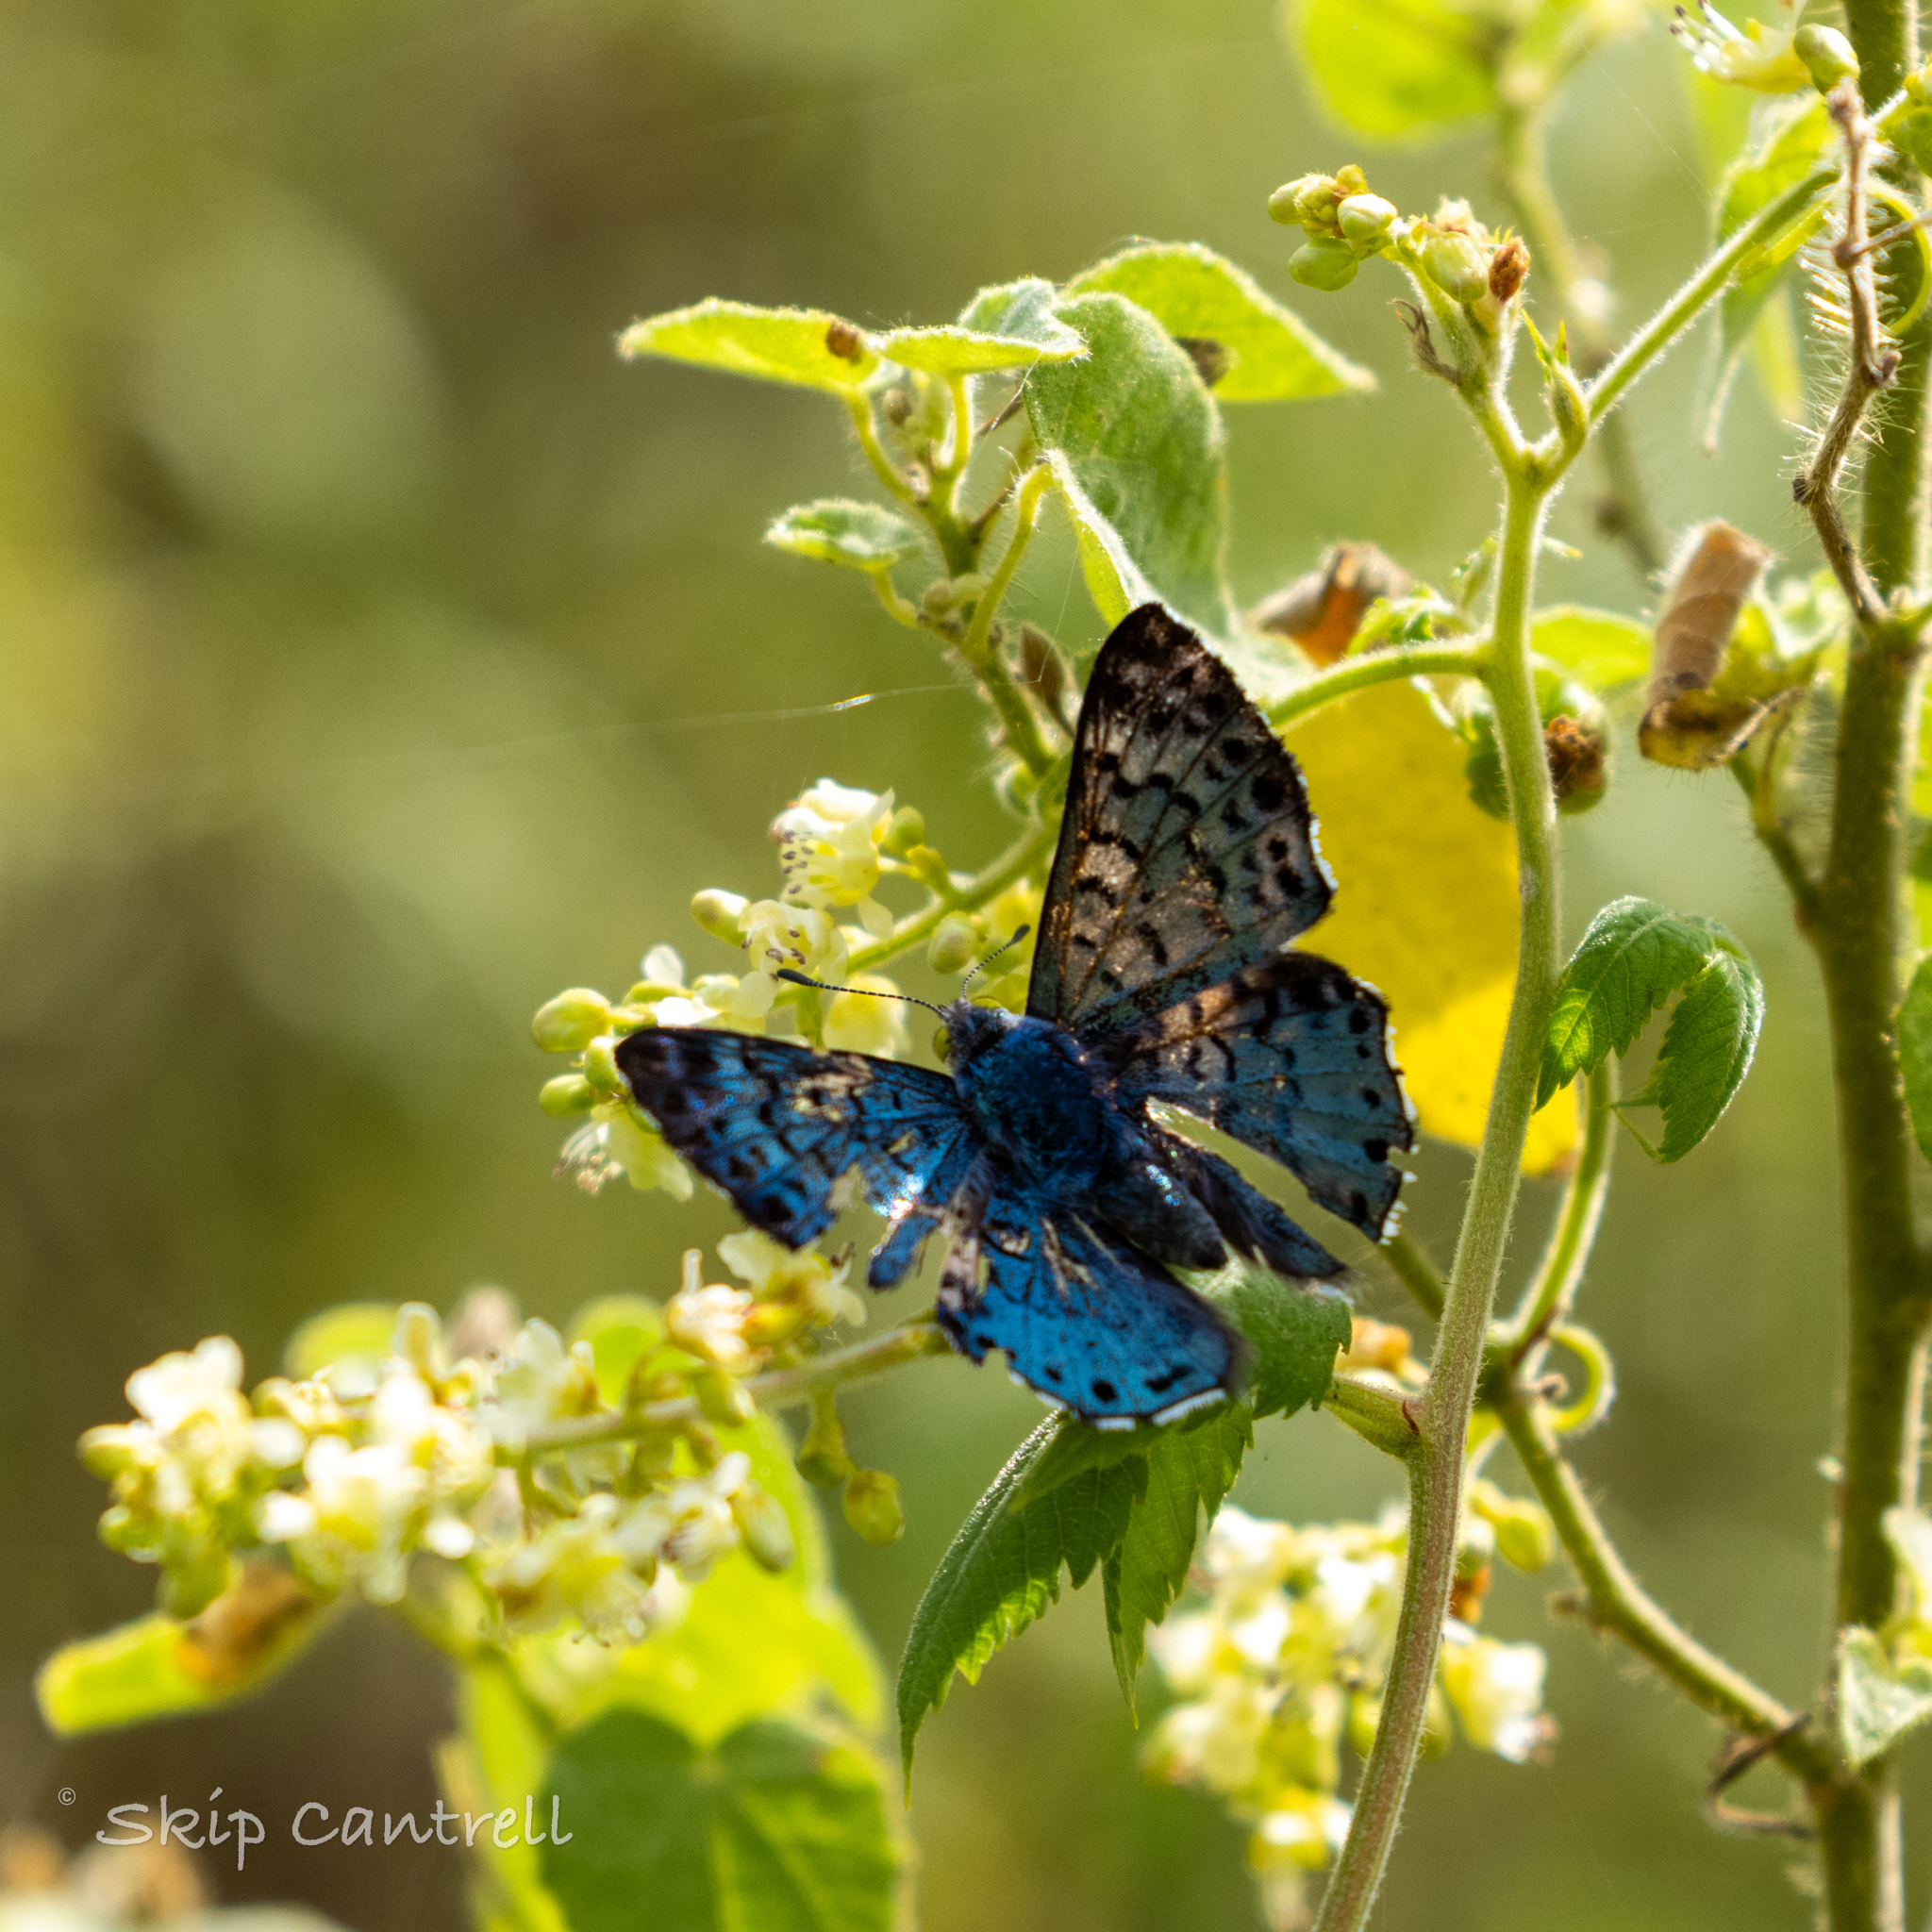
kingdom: Animalia
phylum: Arthropoda
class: Insecta
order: Lepidoptera
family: Riodinidae
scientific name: Riodinidae
